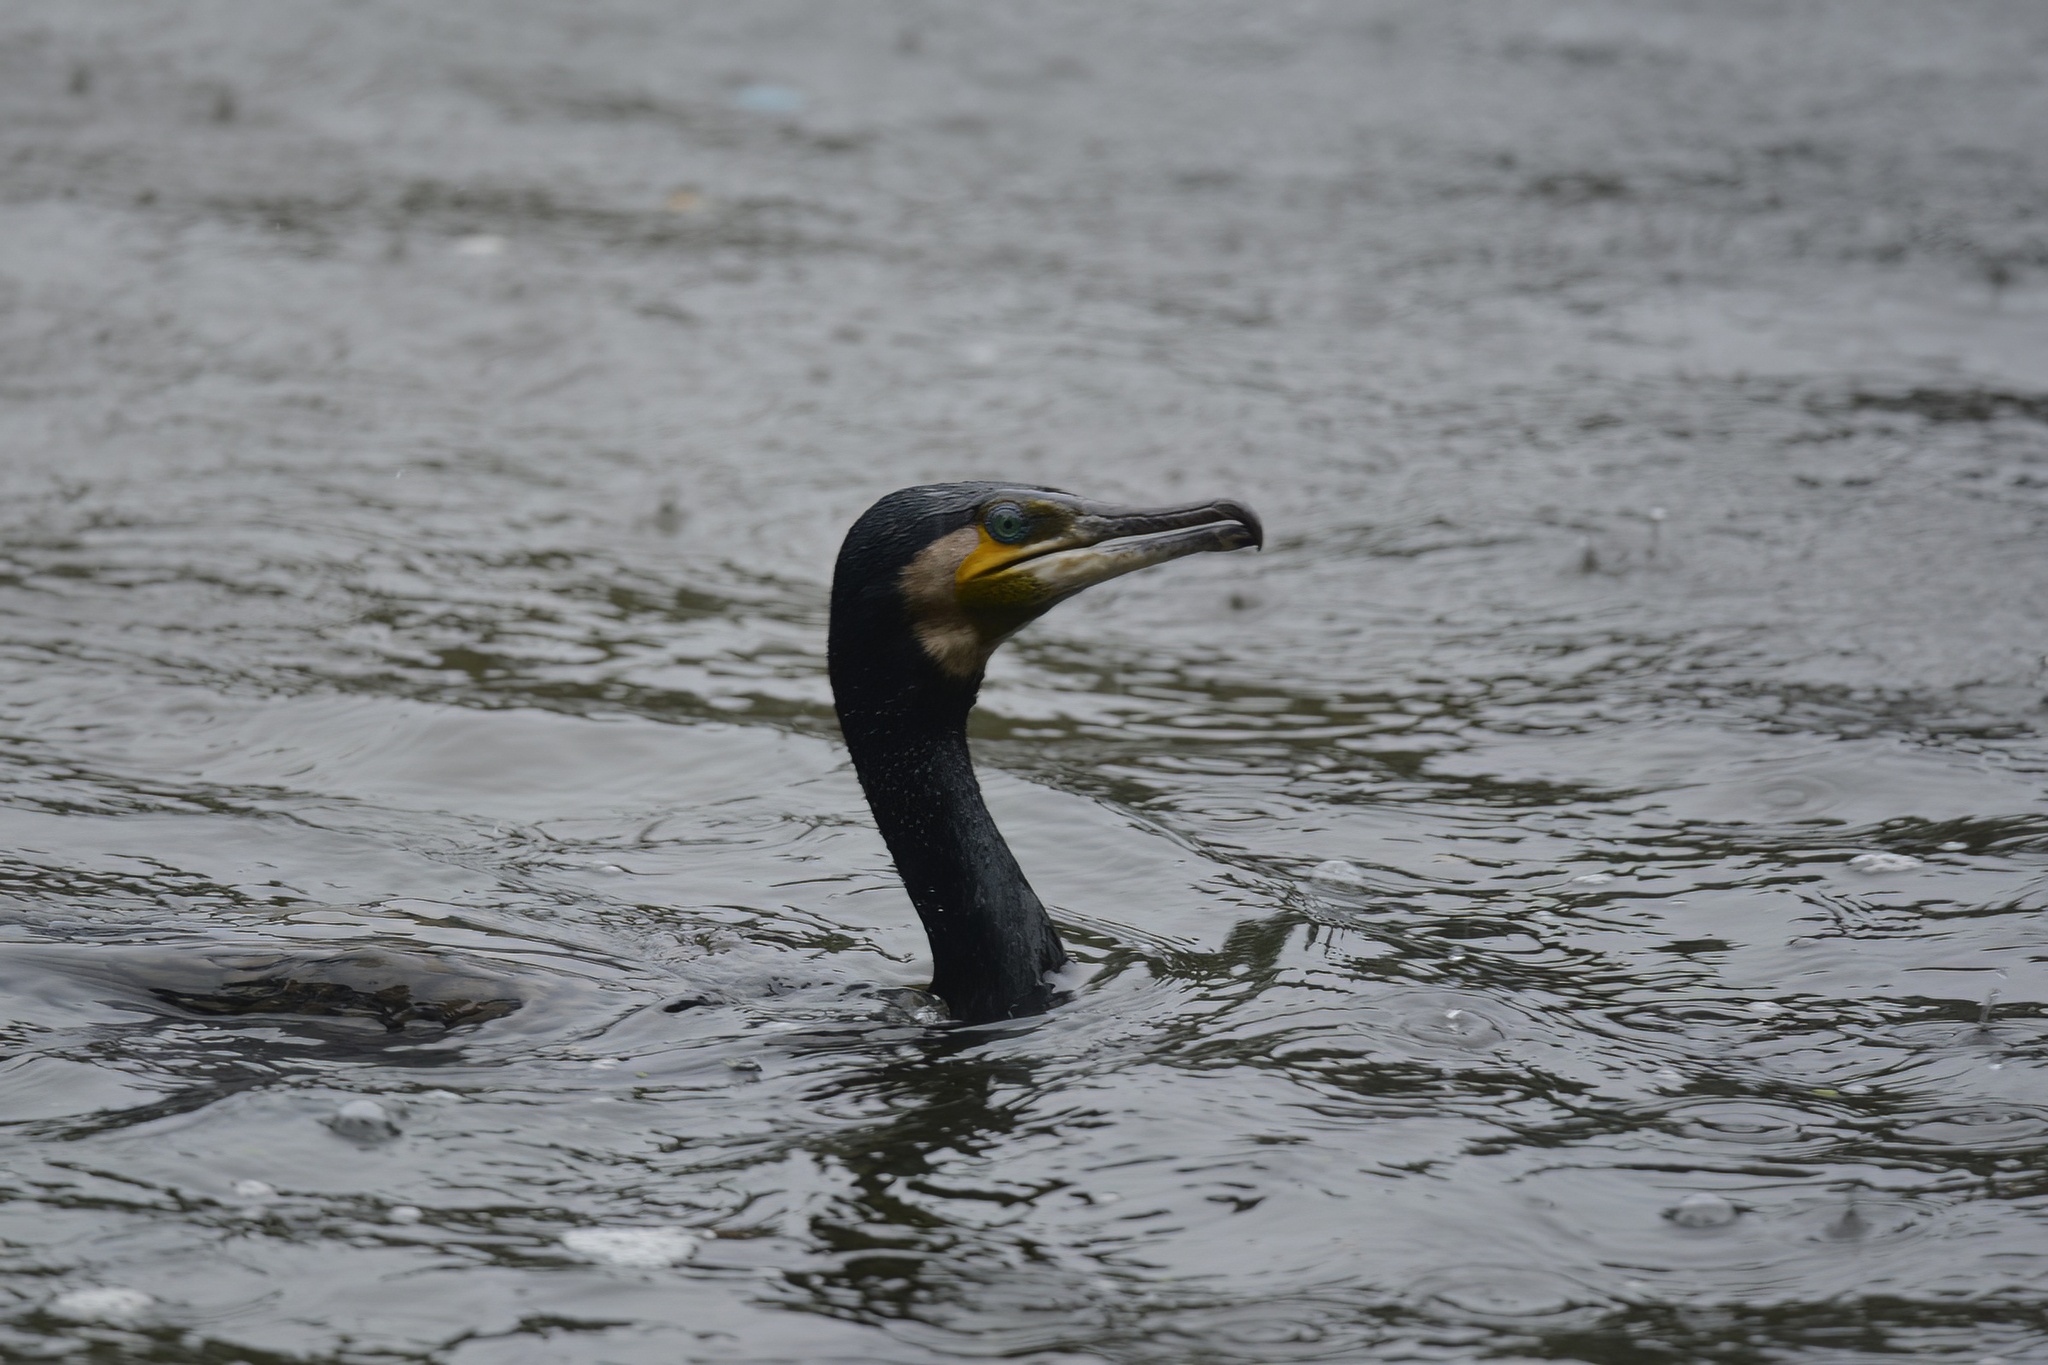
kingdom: Animalia
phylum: Chordata
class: Aves
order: Suliformes
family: Phalacrocoracidae
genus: Phalacrocorax
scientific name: Phalacrocorax carbo
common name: Great cormorant
